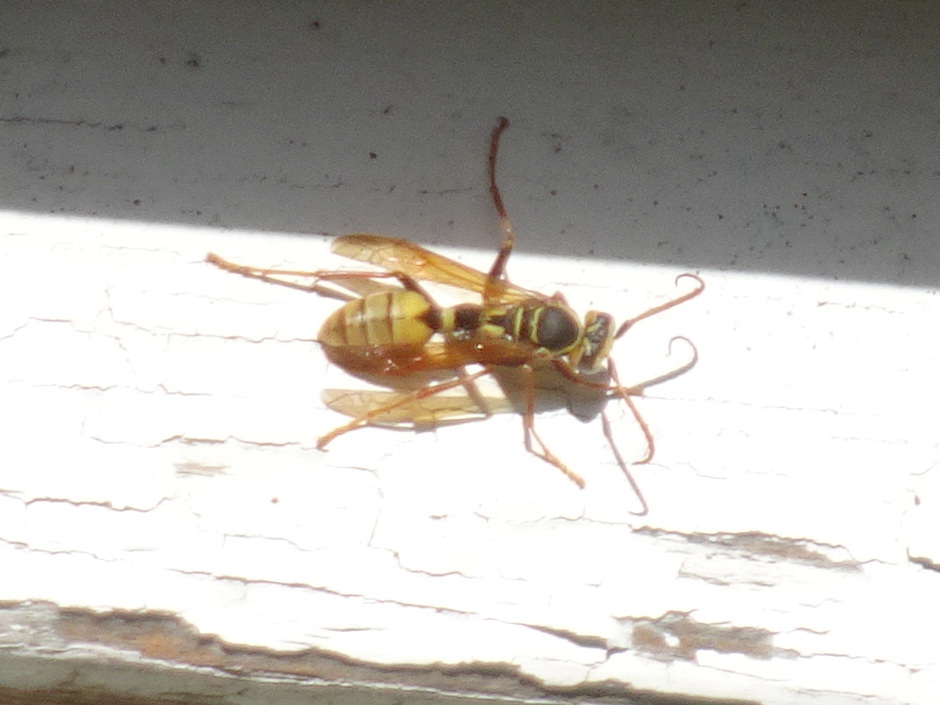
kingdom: Animalia
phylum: Arthropoda
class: Insecta
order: Hymenoptera
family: Vespidae
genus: Mischocyttarus
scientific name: Mischocyttarus flavitarsis
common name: Wasp
